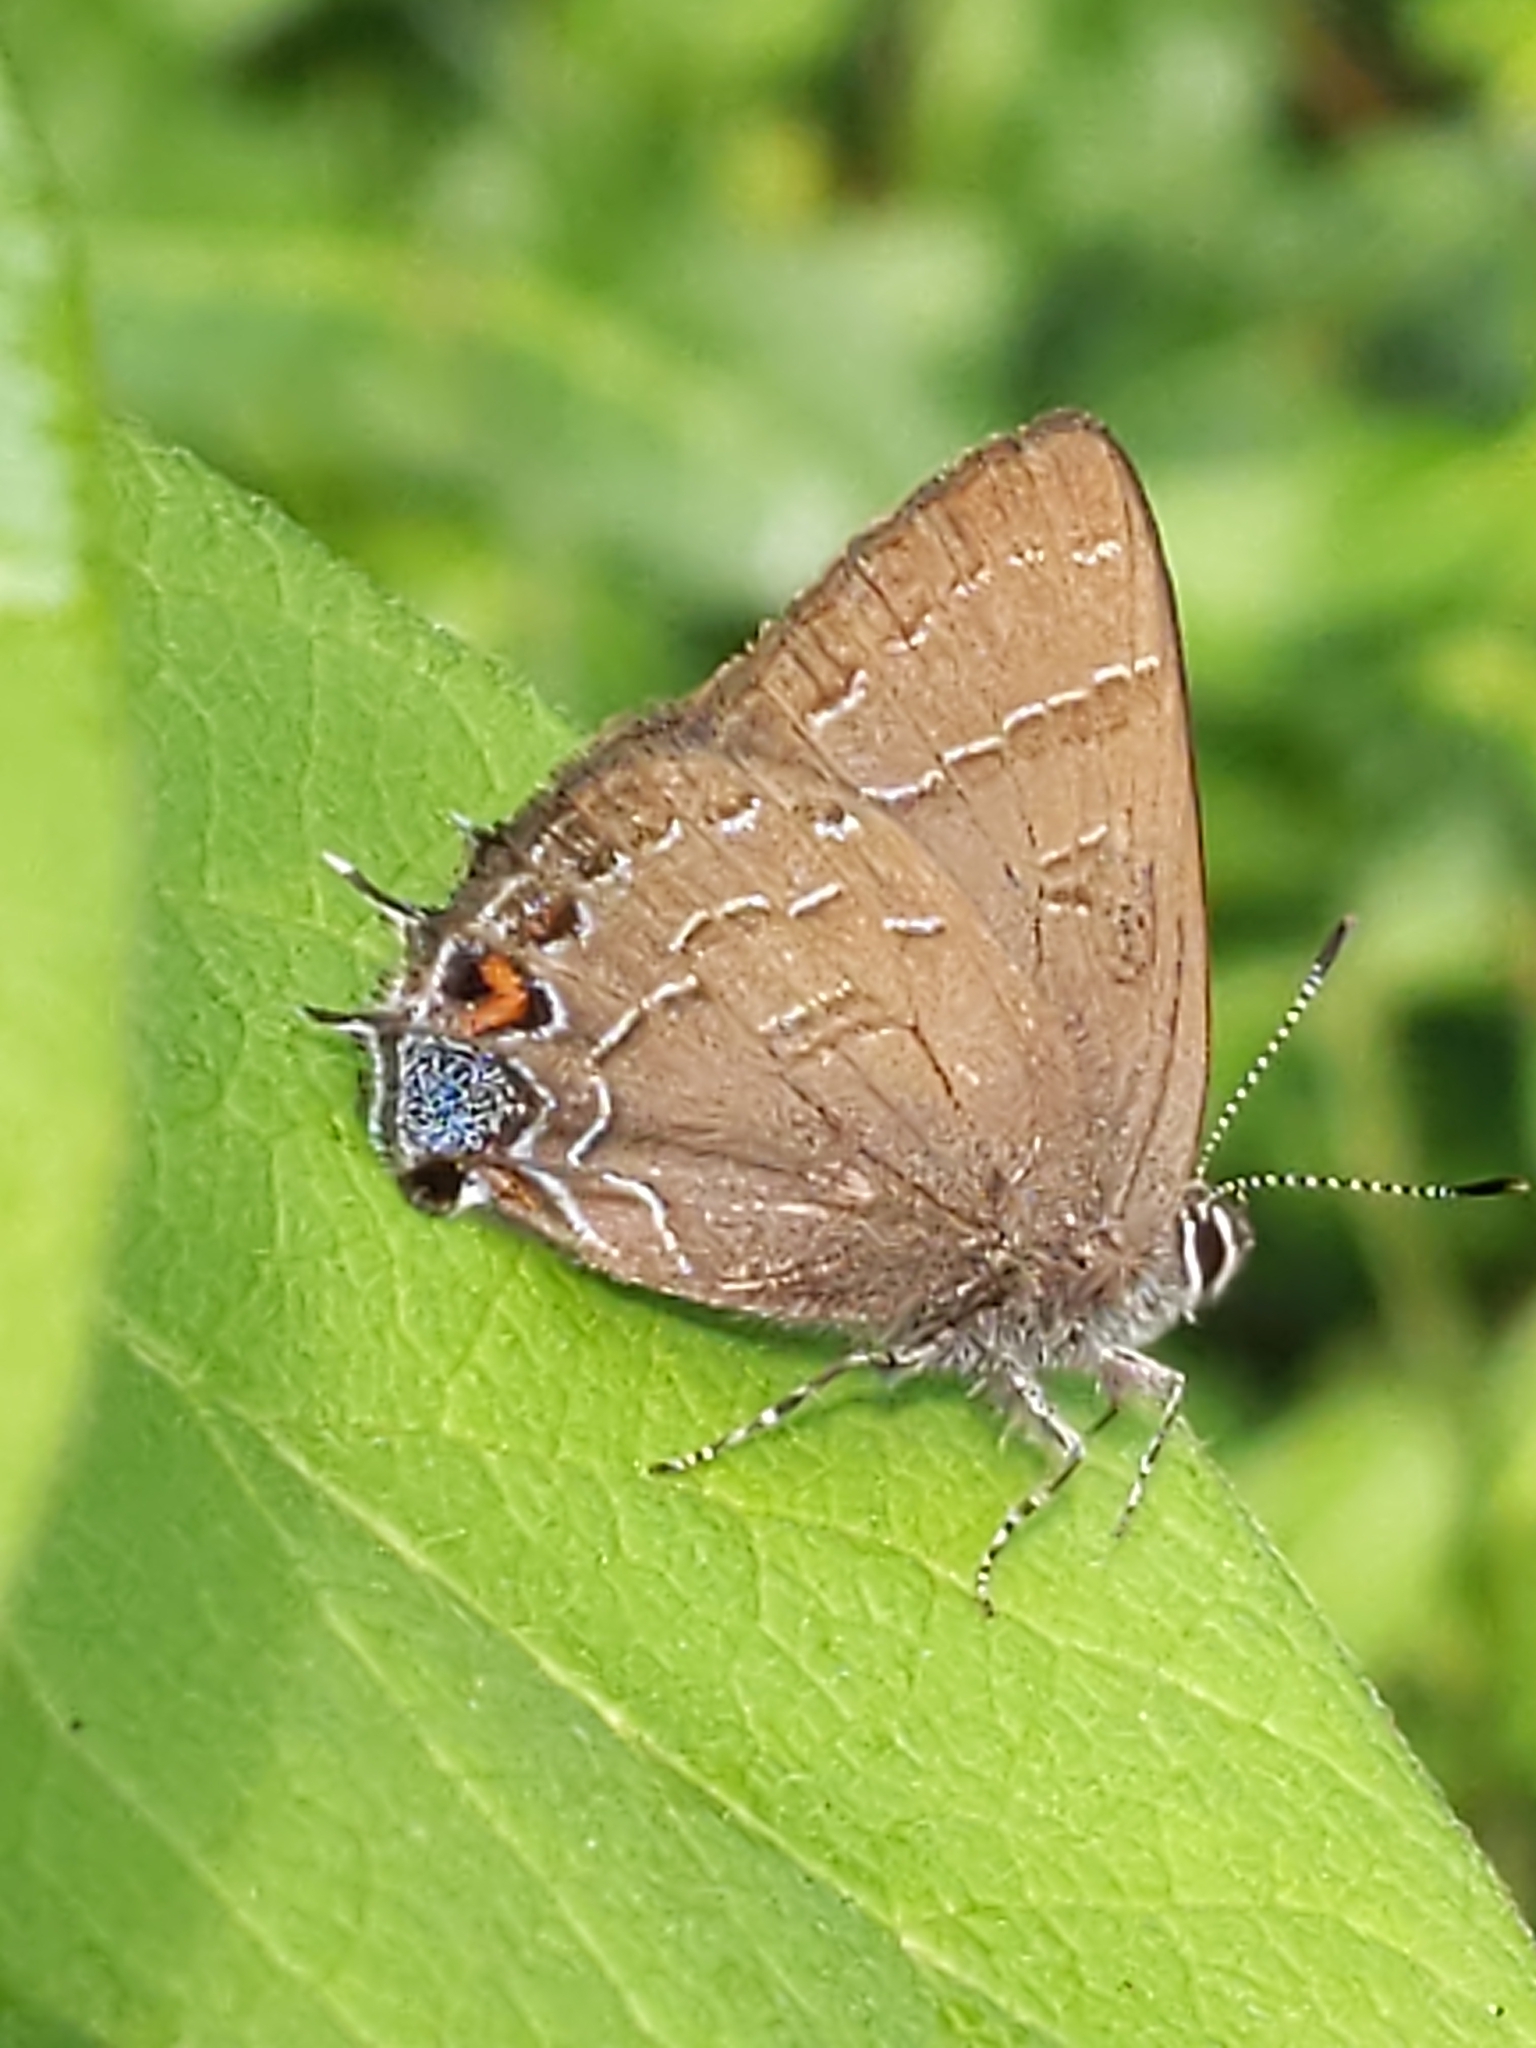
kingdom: Animalia
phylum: Arthropoda
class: Insecta
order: Lepidoptera
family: Lycaenidae
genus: Satyrium
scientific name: Satyrium calanus
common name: Banded hairstreak
